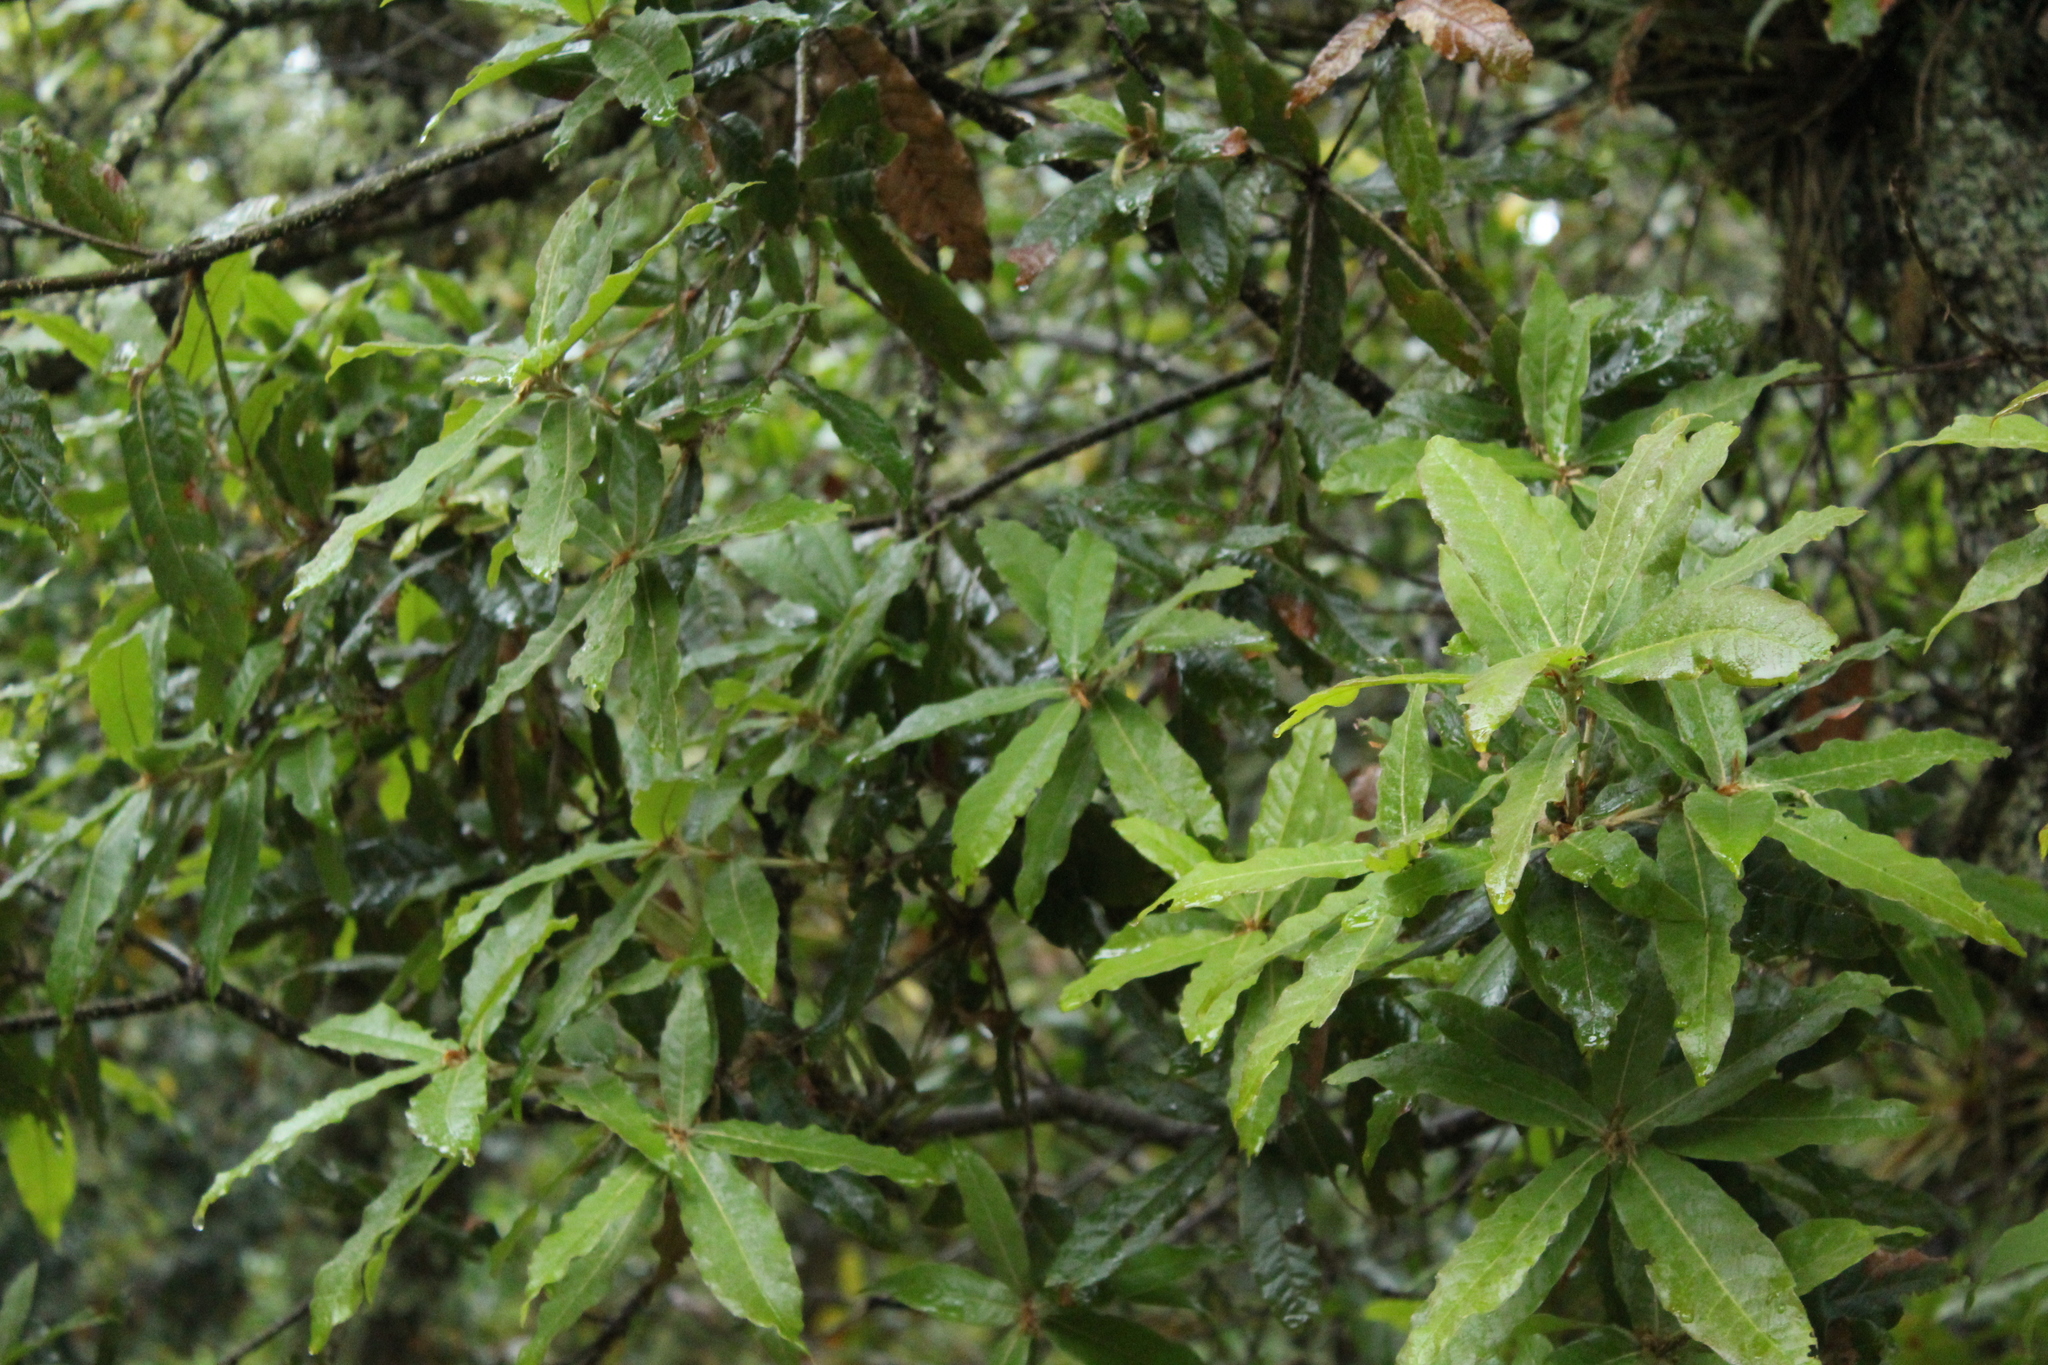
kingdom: Plantae
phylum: Tracheophyta
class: Magnoliopsida
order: Fagales
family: Fagaceae
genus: Quercus
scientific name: Quercus humboldtii
